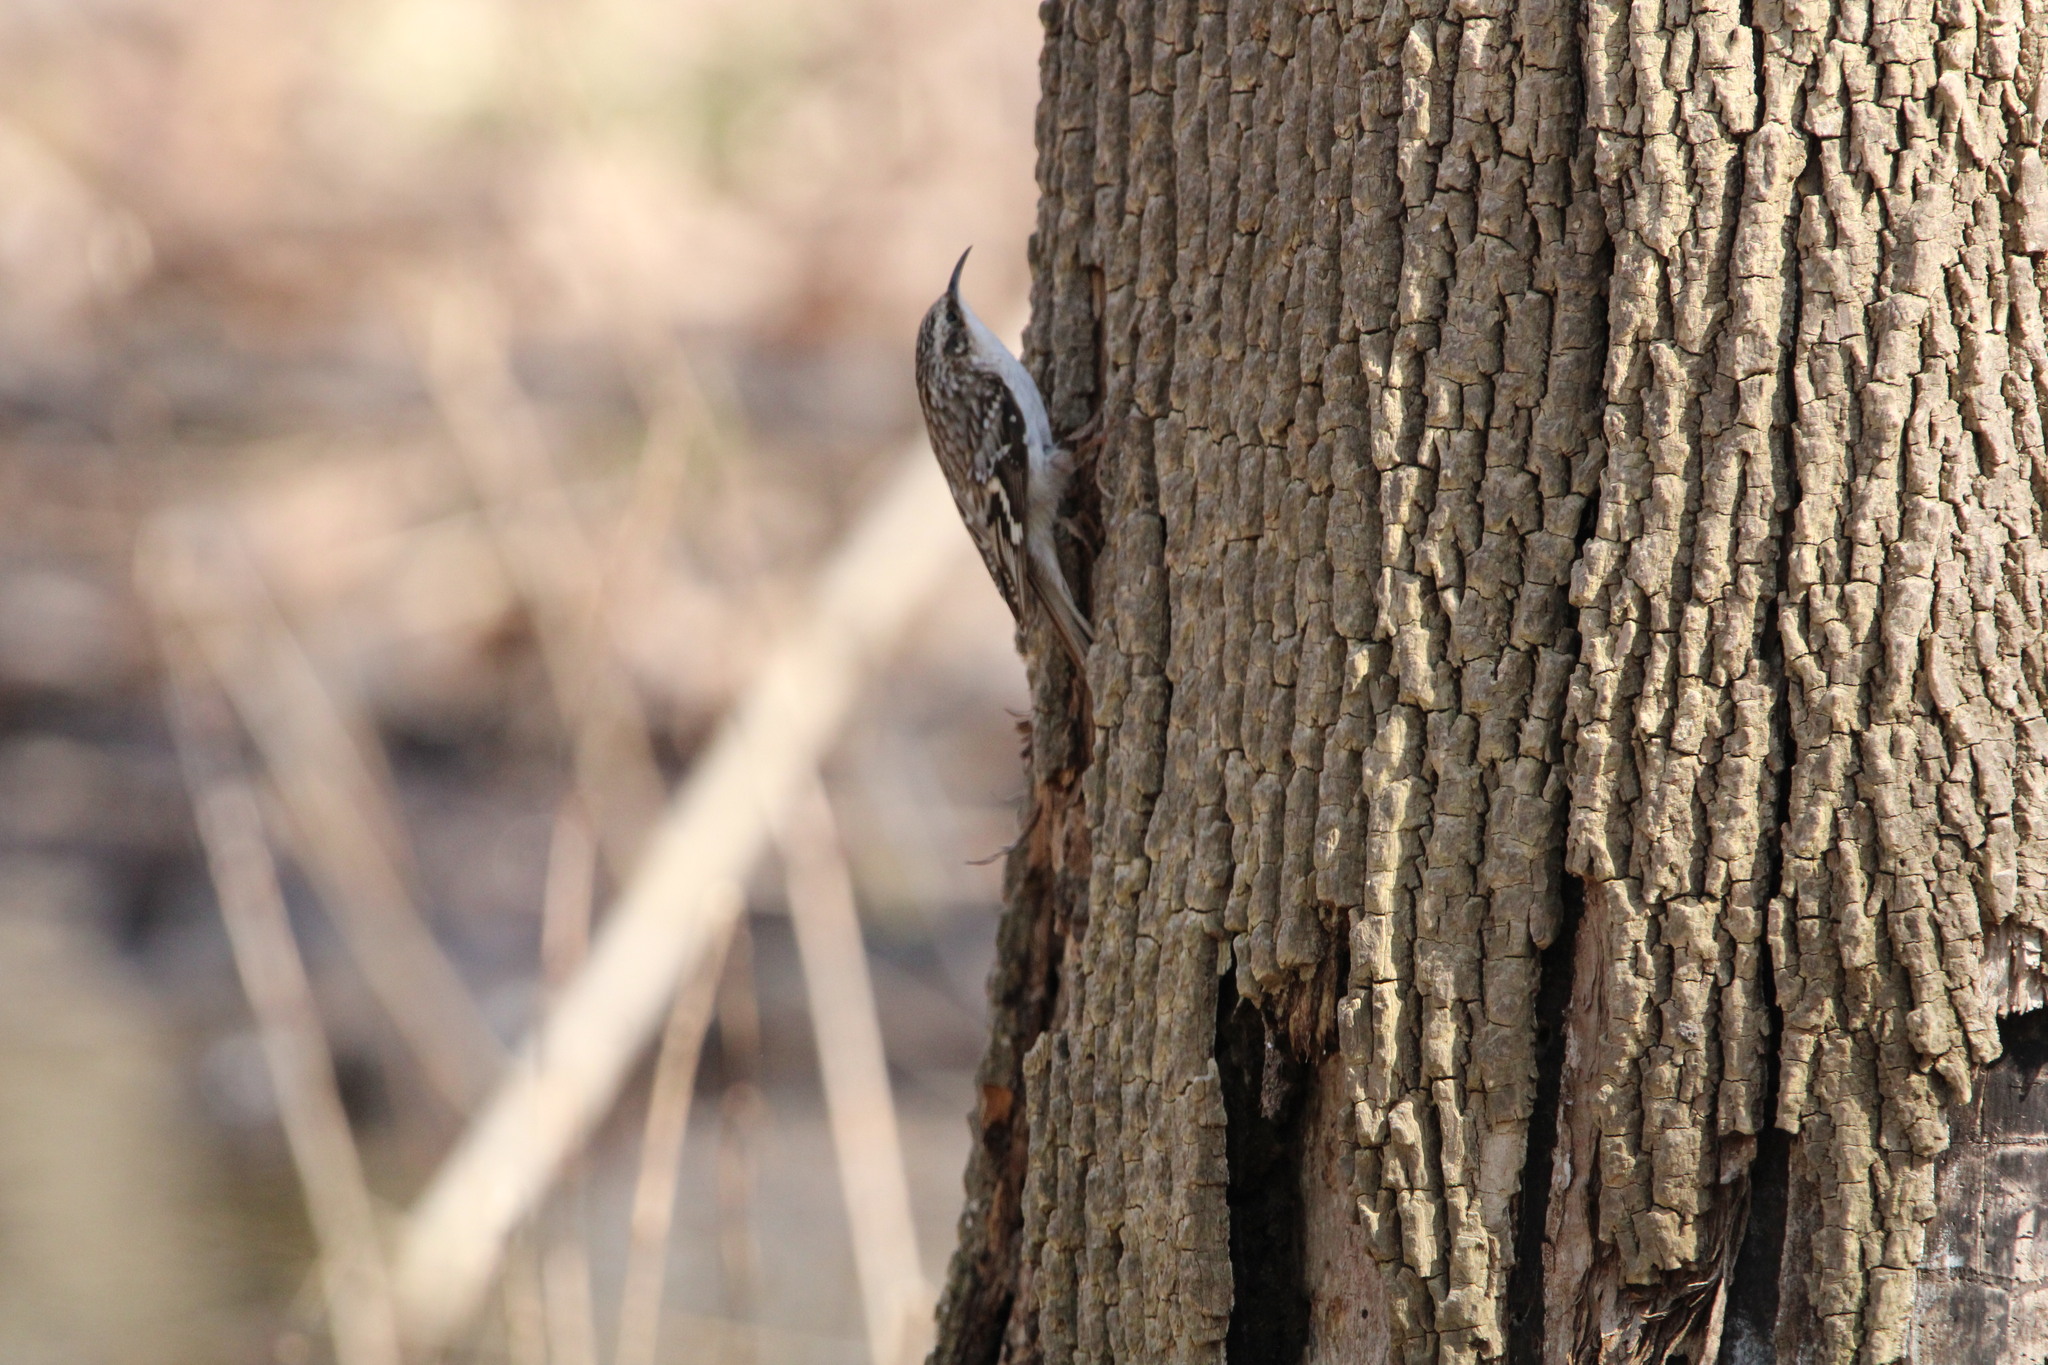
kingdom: Animalia
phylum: Chordata
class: Aves
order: Passeriformes
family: Certhiidae
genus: Certhia
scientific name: Certhia americana
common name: Brown creeper
